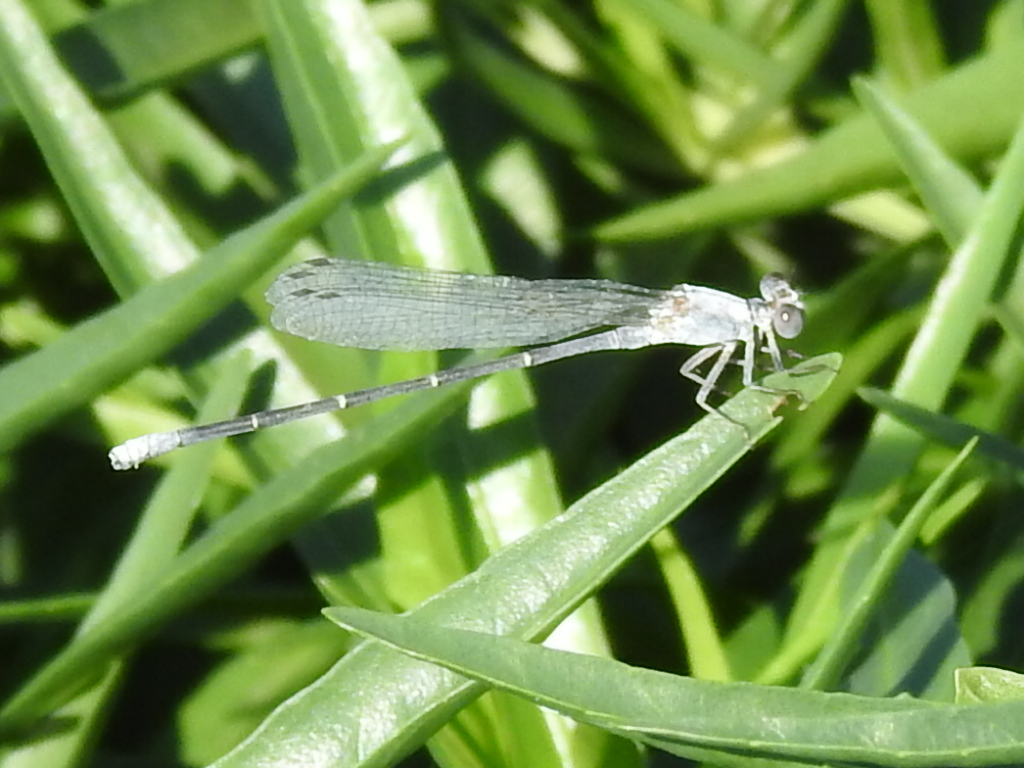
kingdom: Animalia
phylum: Arthropoda
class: Insecta
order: Odonata
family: Coenagrionidae
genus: Argia
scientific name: Argia moesta
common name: Powdered dancer
